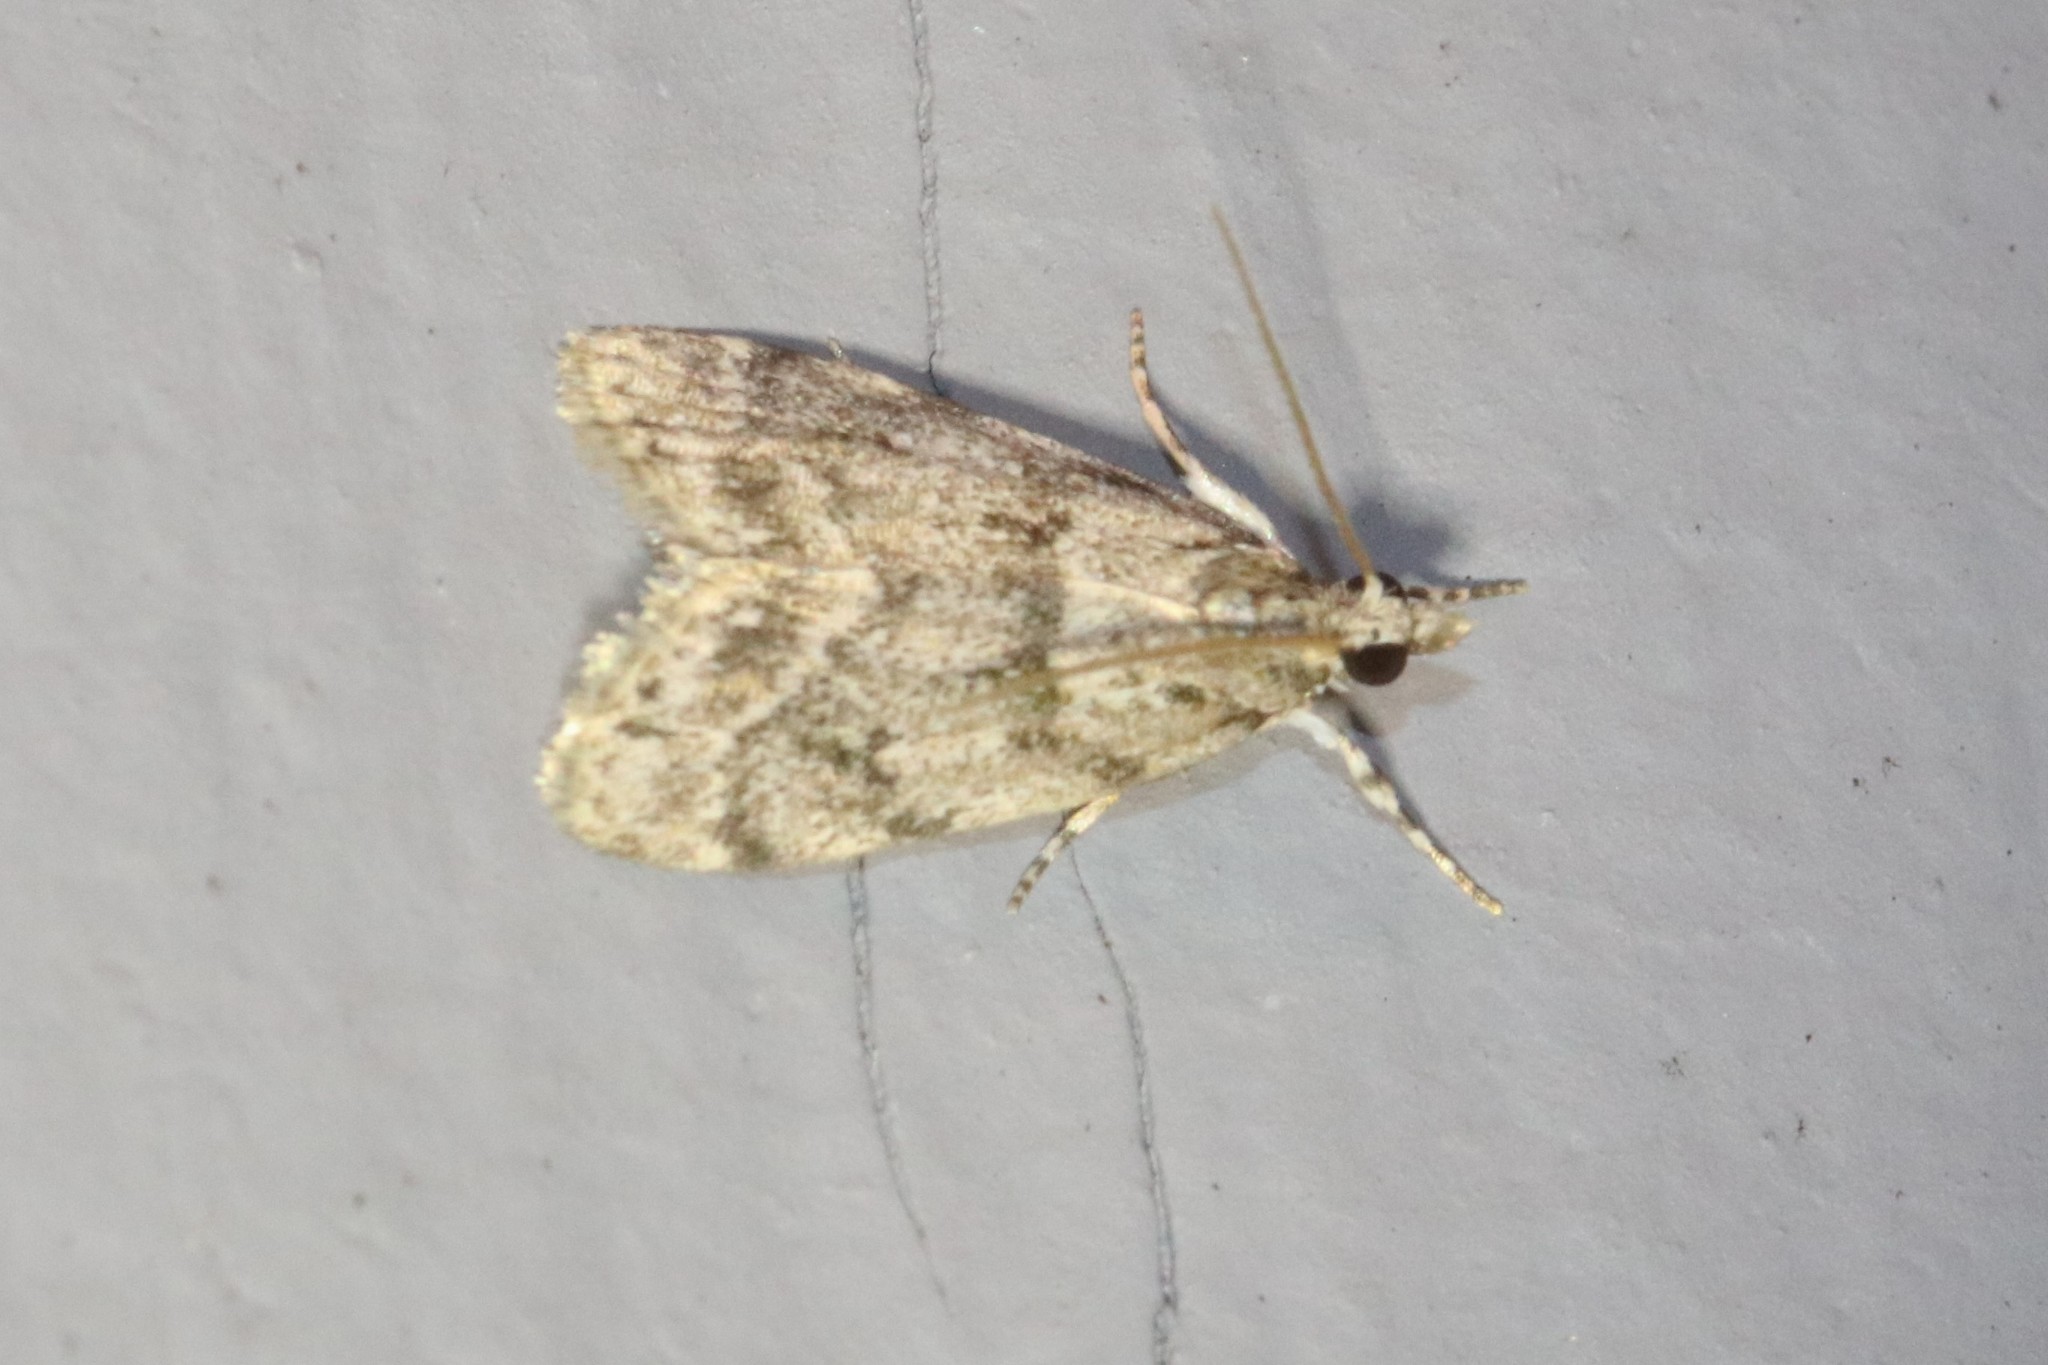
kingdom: Animalia
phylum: Arthropoda
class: Insecta
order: Lepidoptera
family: Crambidae
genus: Scoparia
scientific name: Scoparia basalis
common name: Many-spotted scoparia moth
